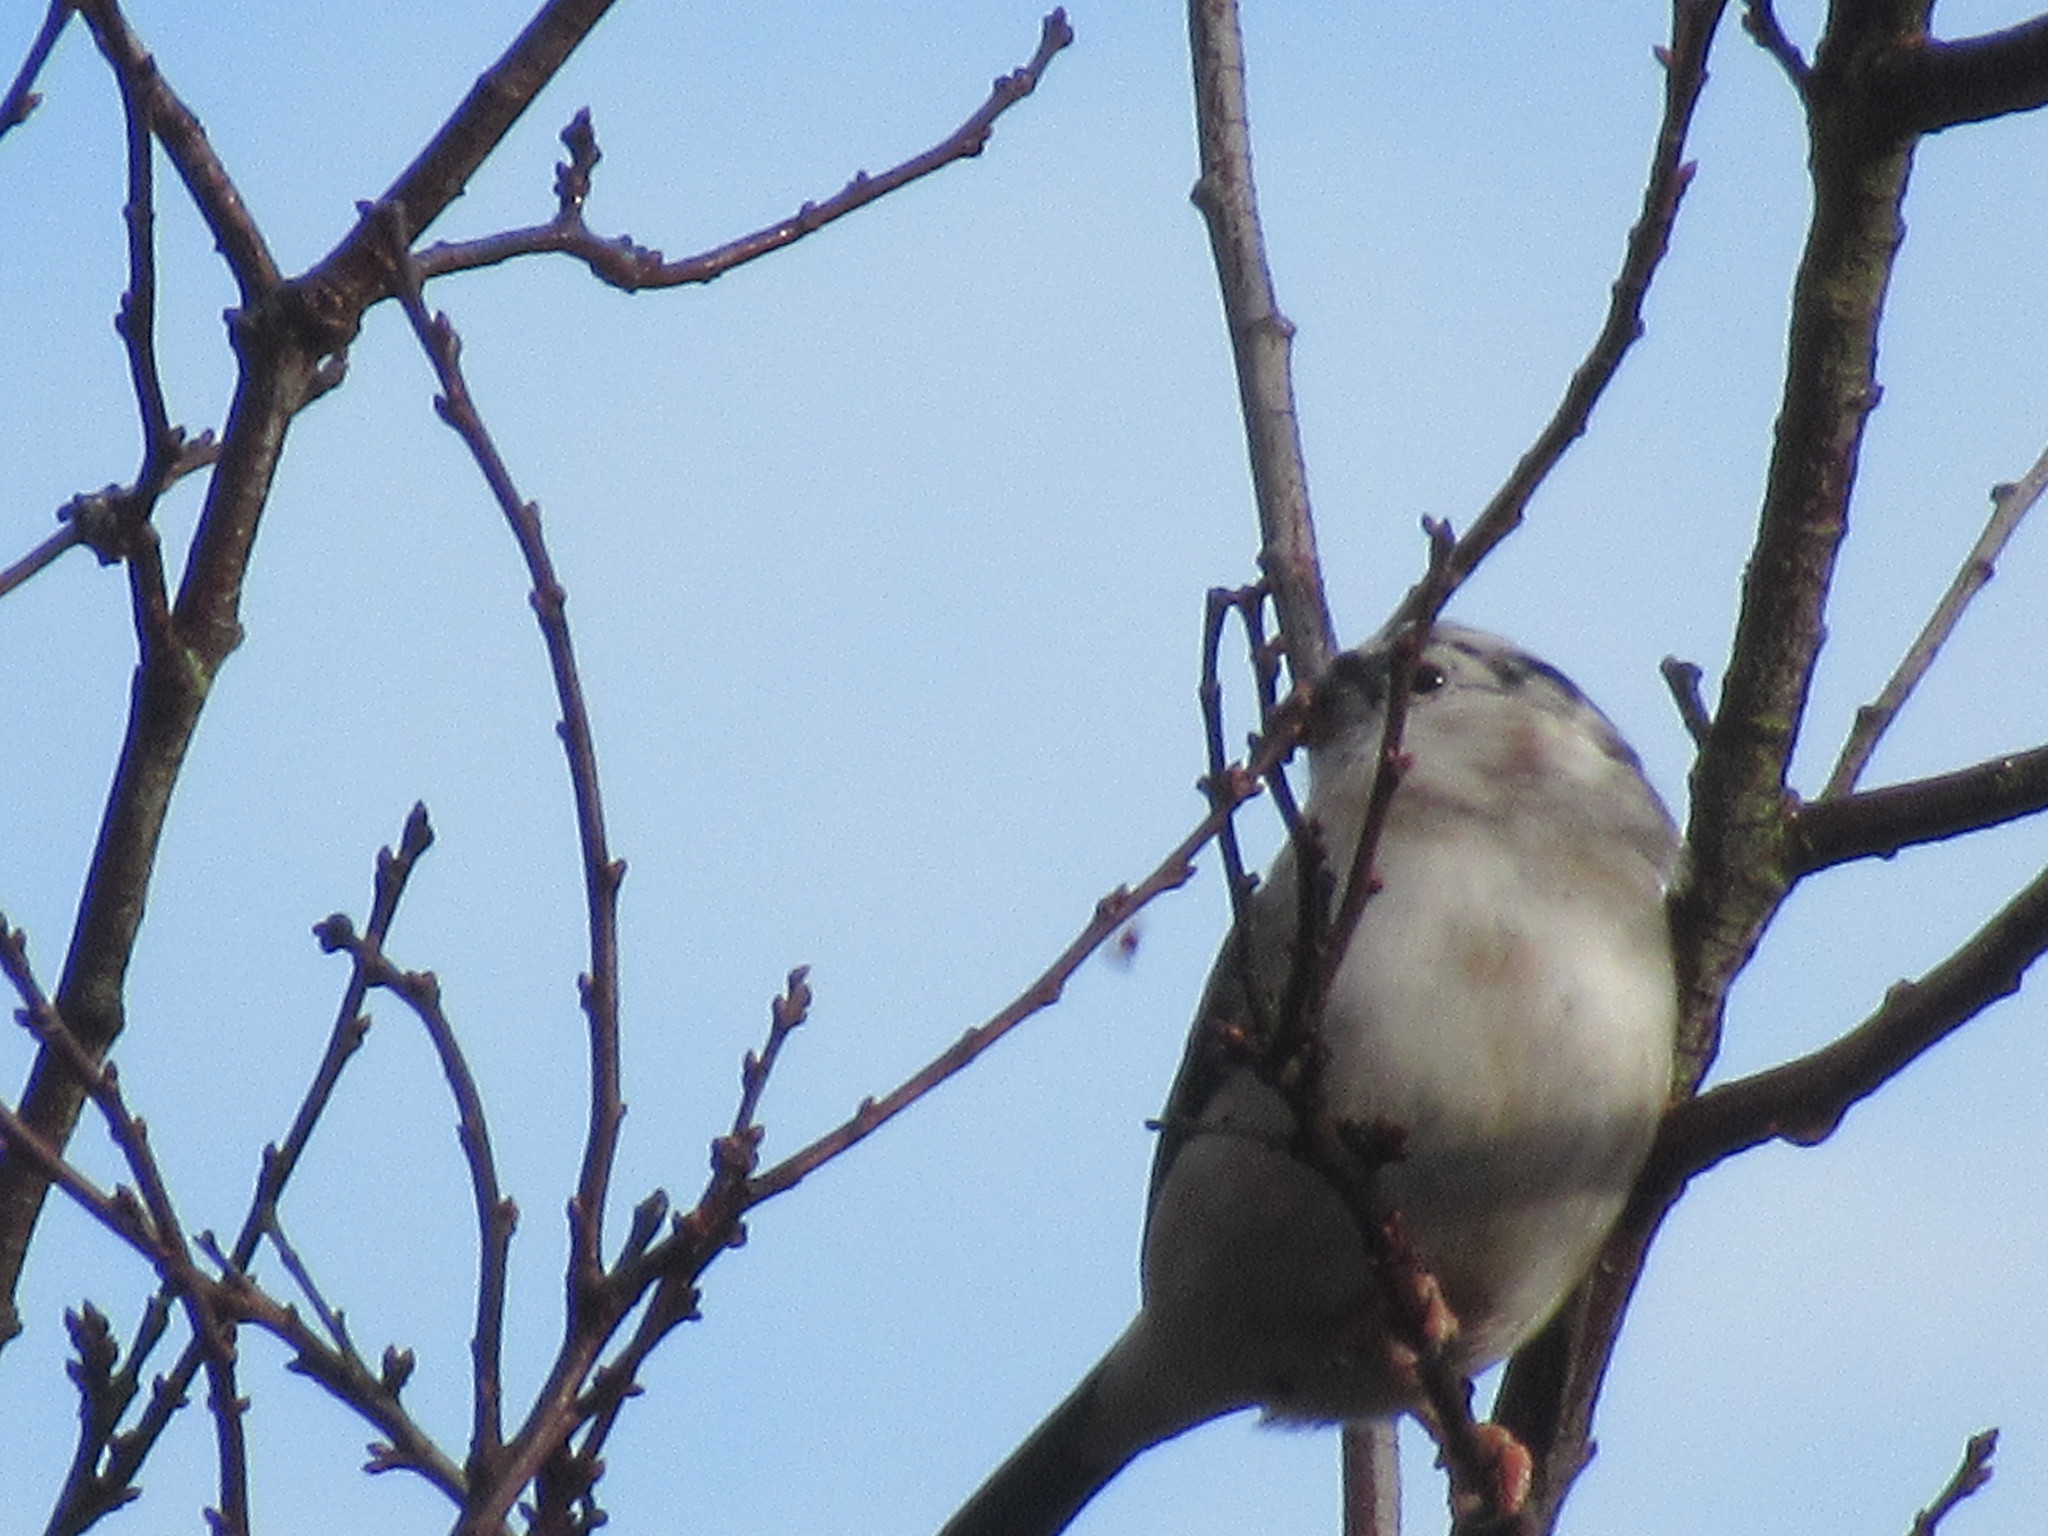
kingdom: Animalia
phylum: Chordata
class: Aves
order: Passeriformes
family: Fringillidae
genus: Pyrrhula
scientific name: Pyrrhula pyrrhula
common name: Eurasian bullfinch
